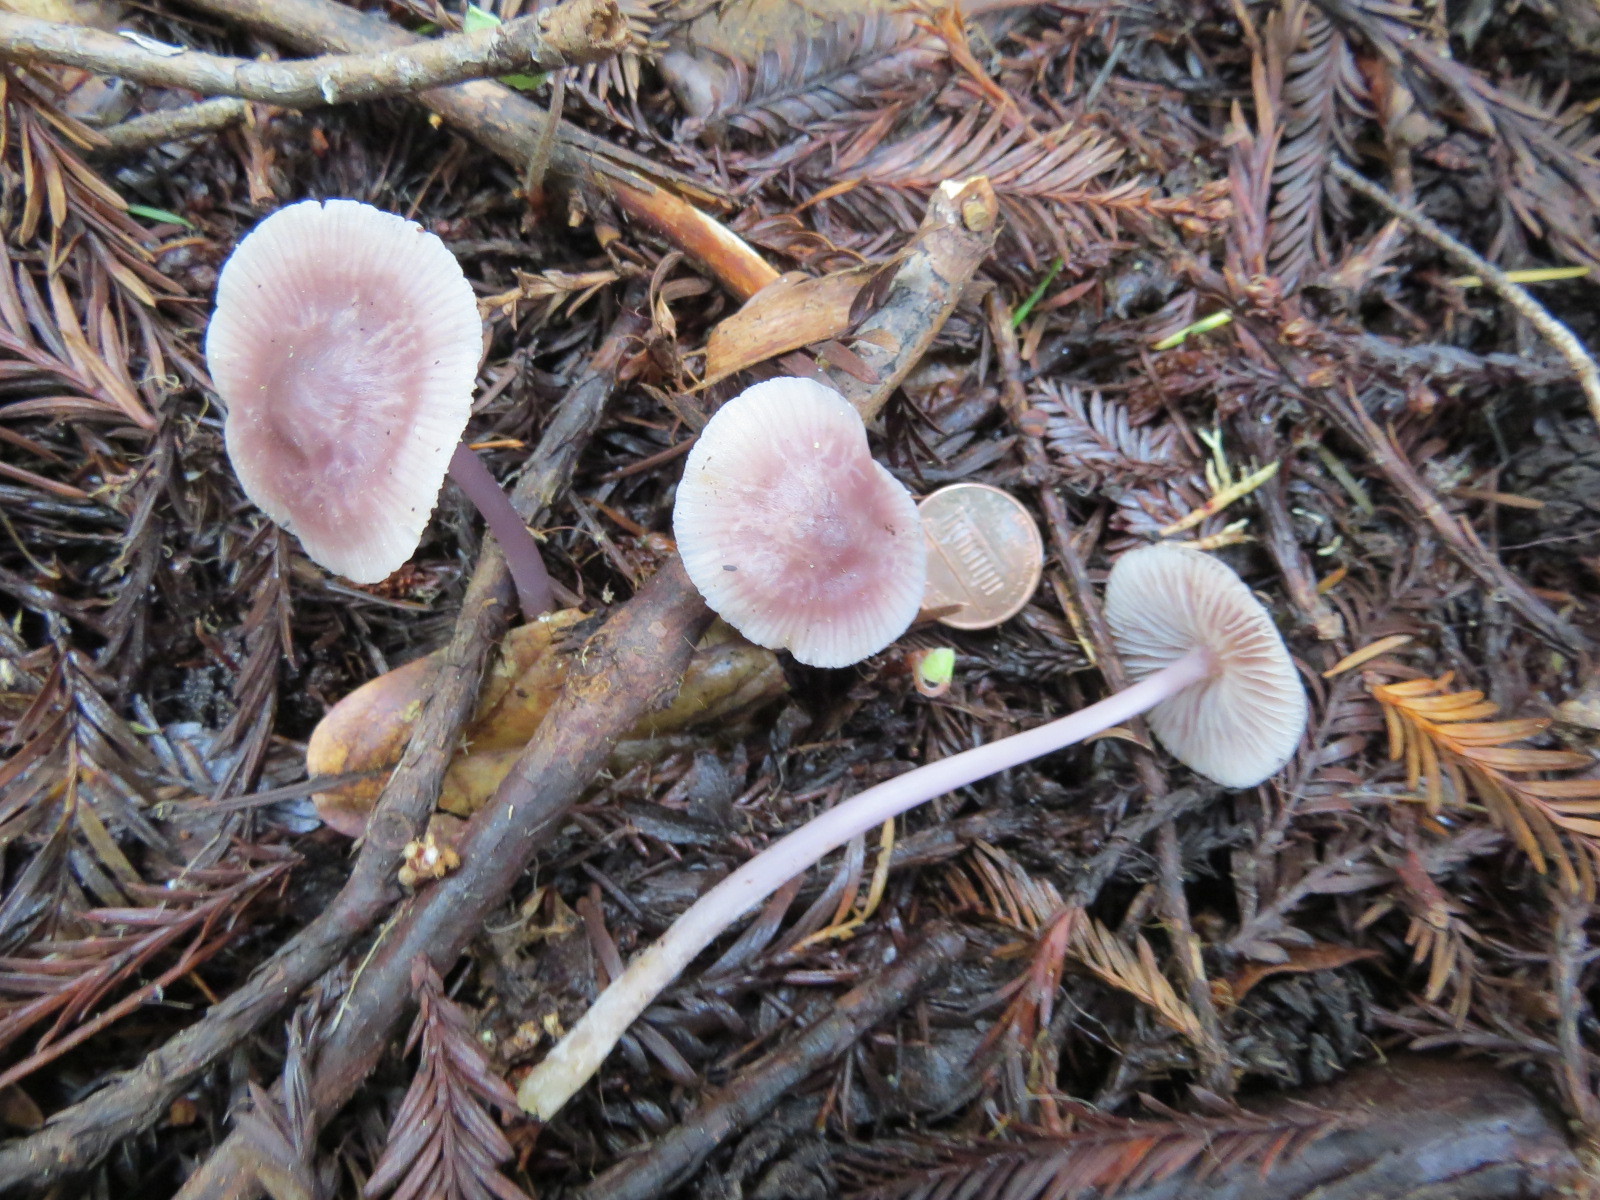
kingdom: Fungi
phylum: Basidiomycota
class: Agaricomycetes
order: Agaricales
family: Mycenaceae
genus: Mycena
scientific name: Mycena pura
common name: Lilac bonnet
